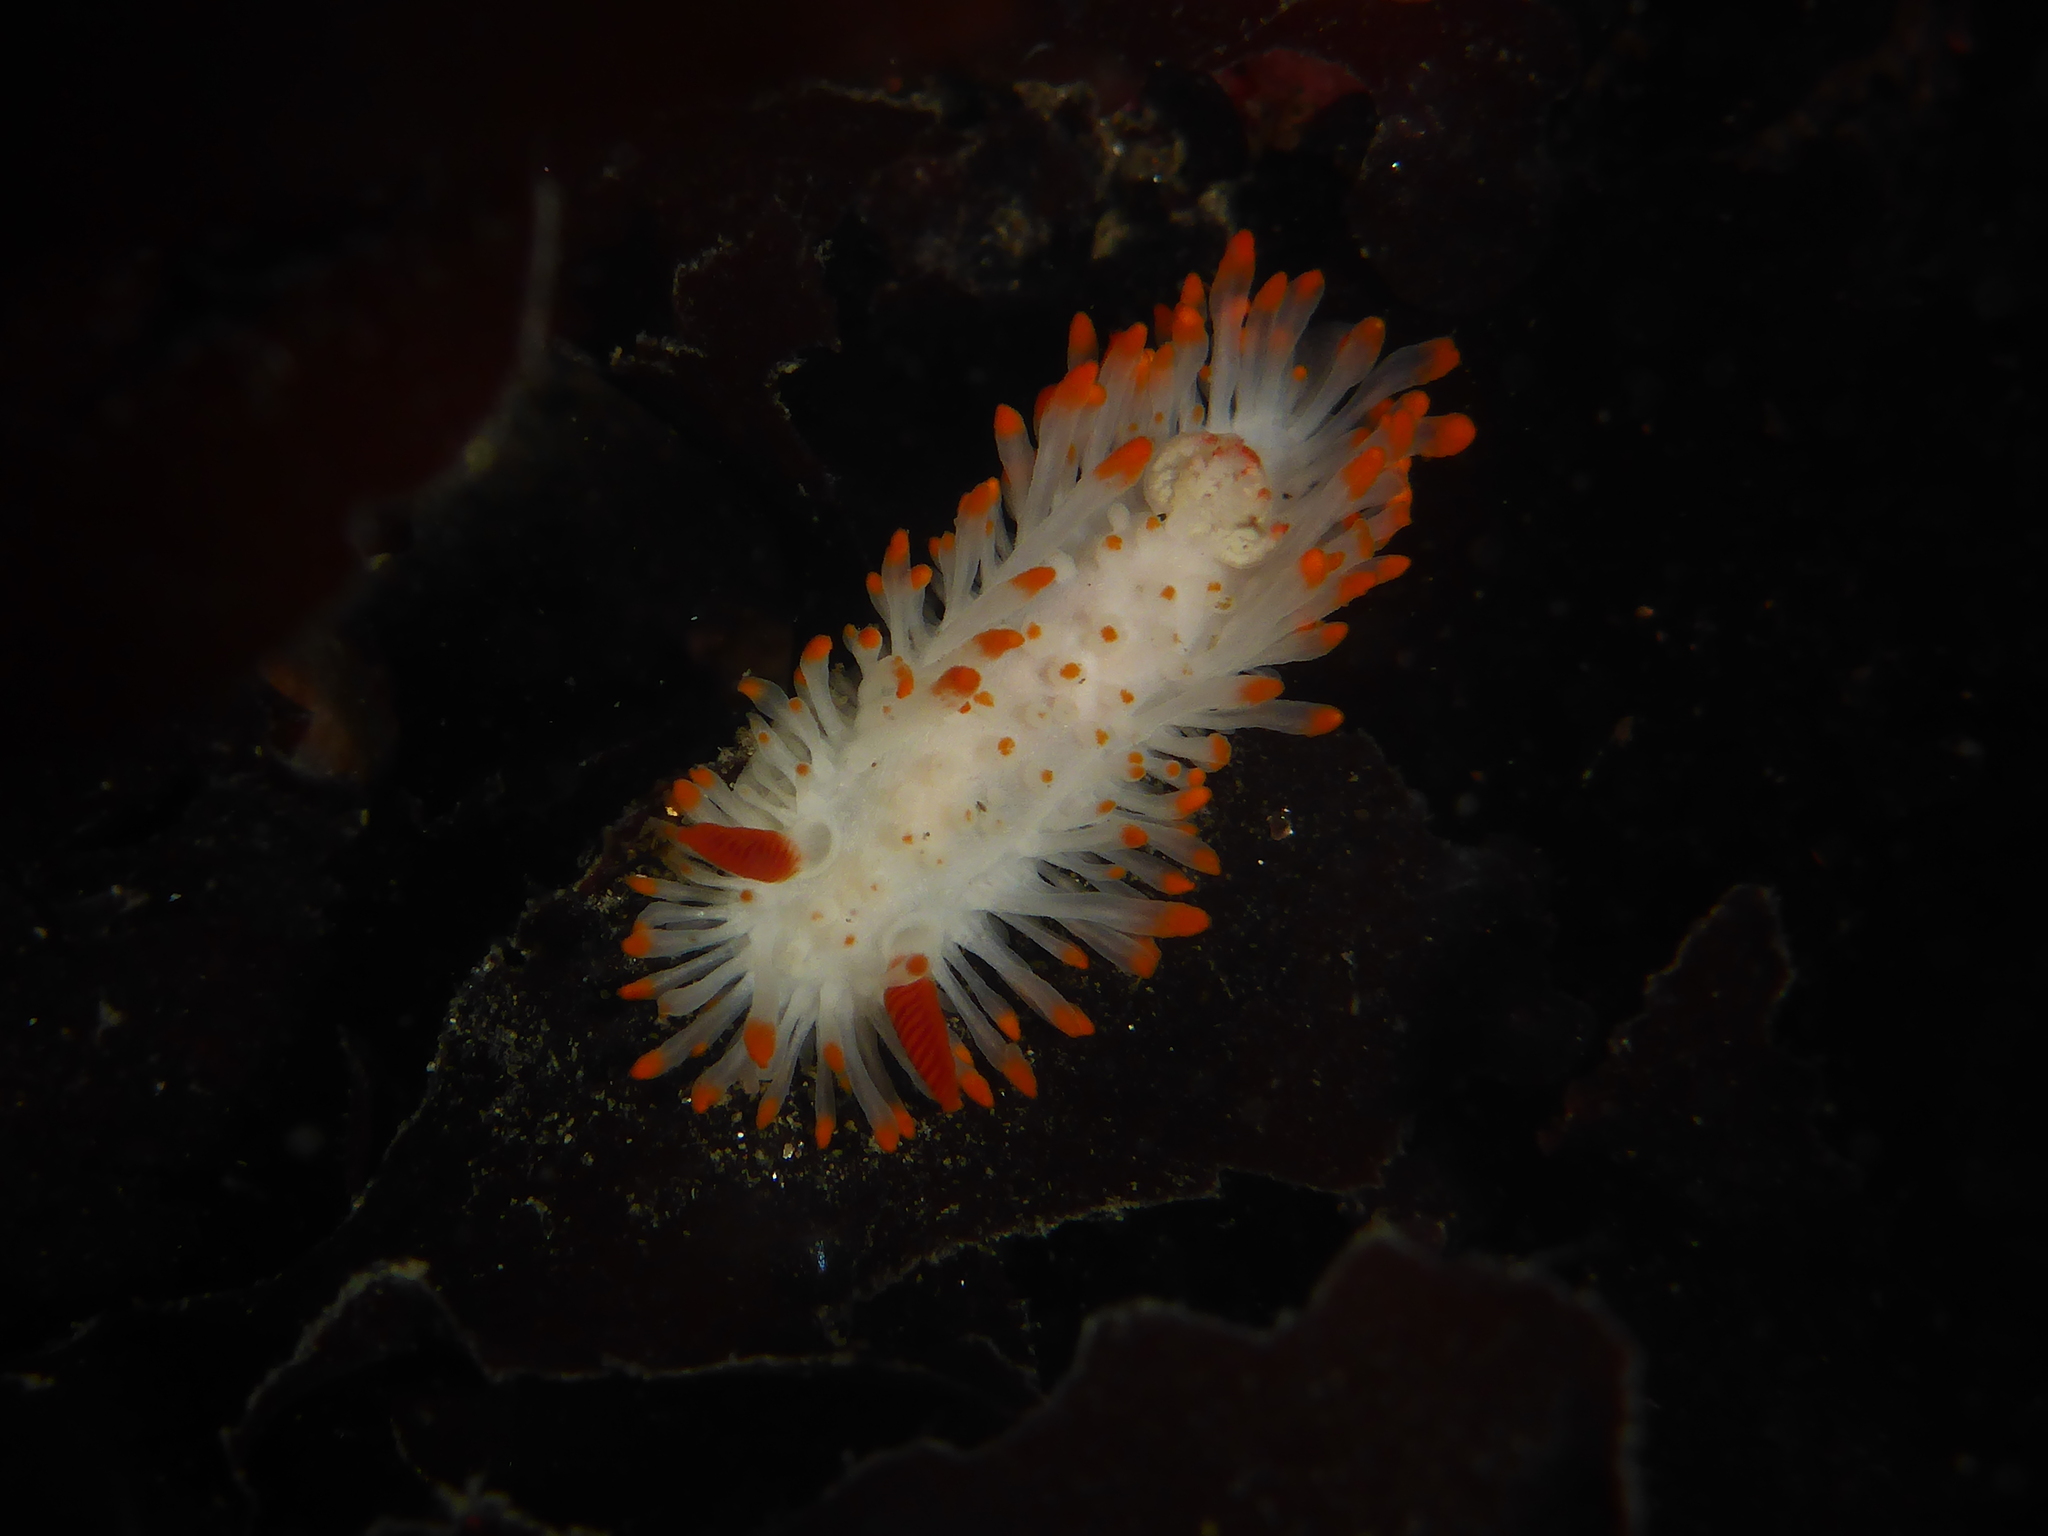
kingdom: Animalia
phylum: Mollusca
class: Gastropoda
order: Nudibranchia
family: Polyceridae
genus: Limacia
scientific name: Limacia cockerelli
